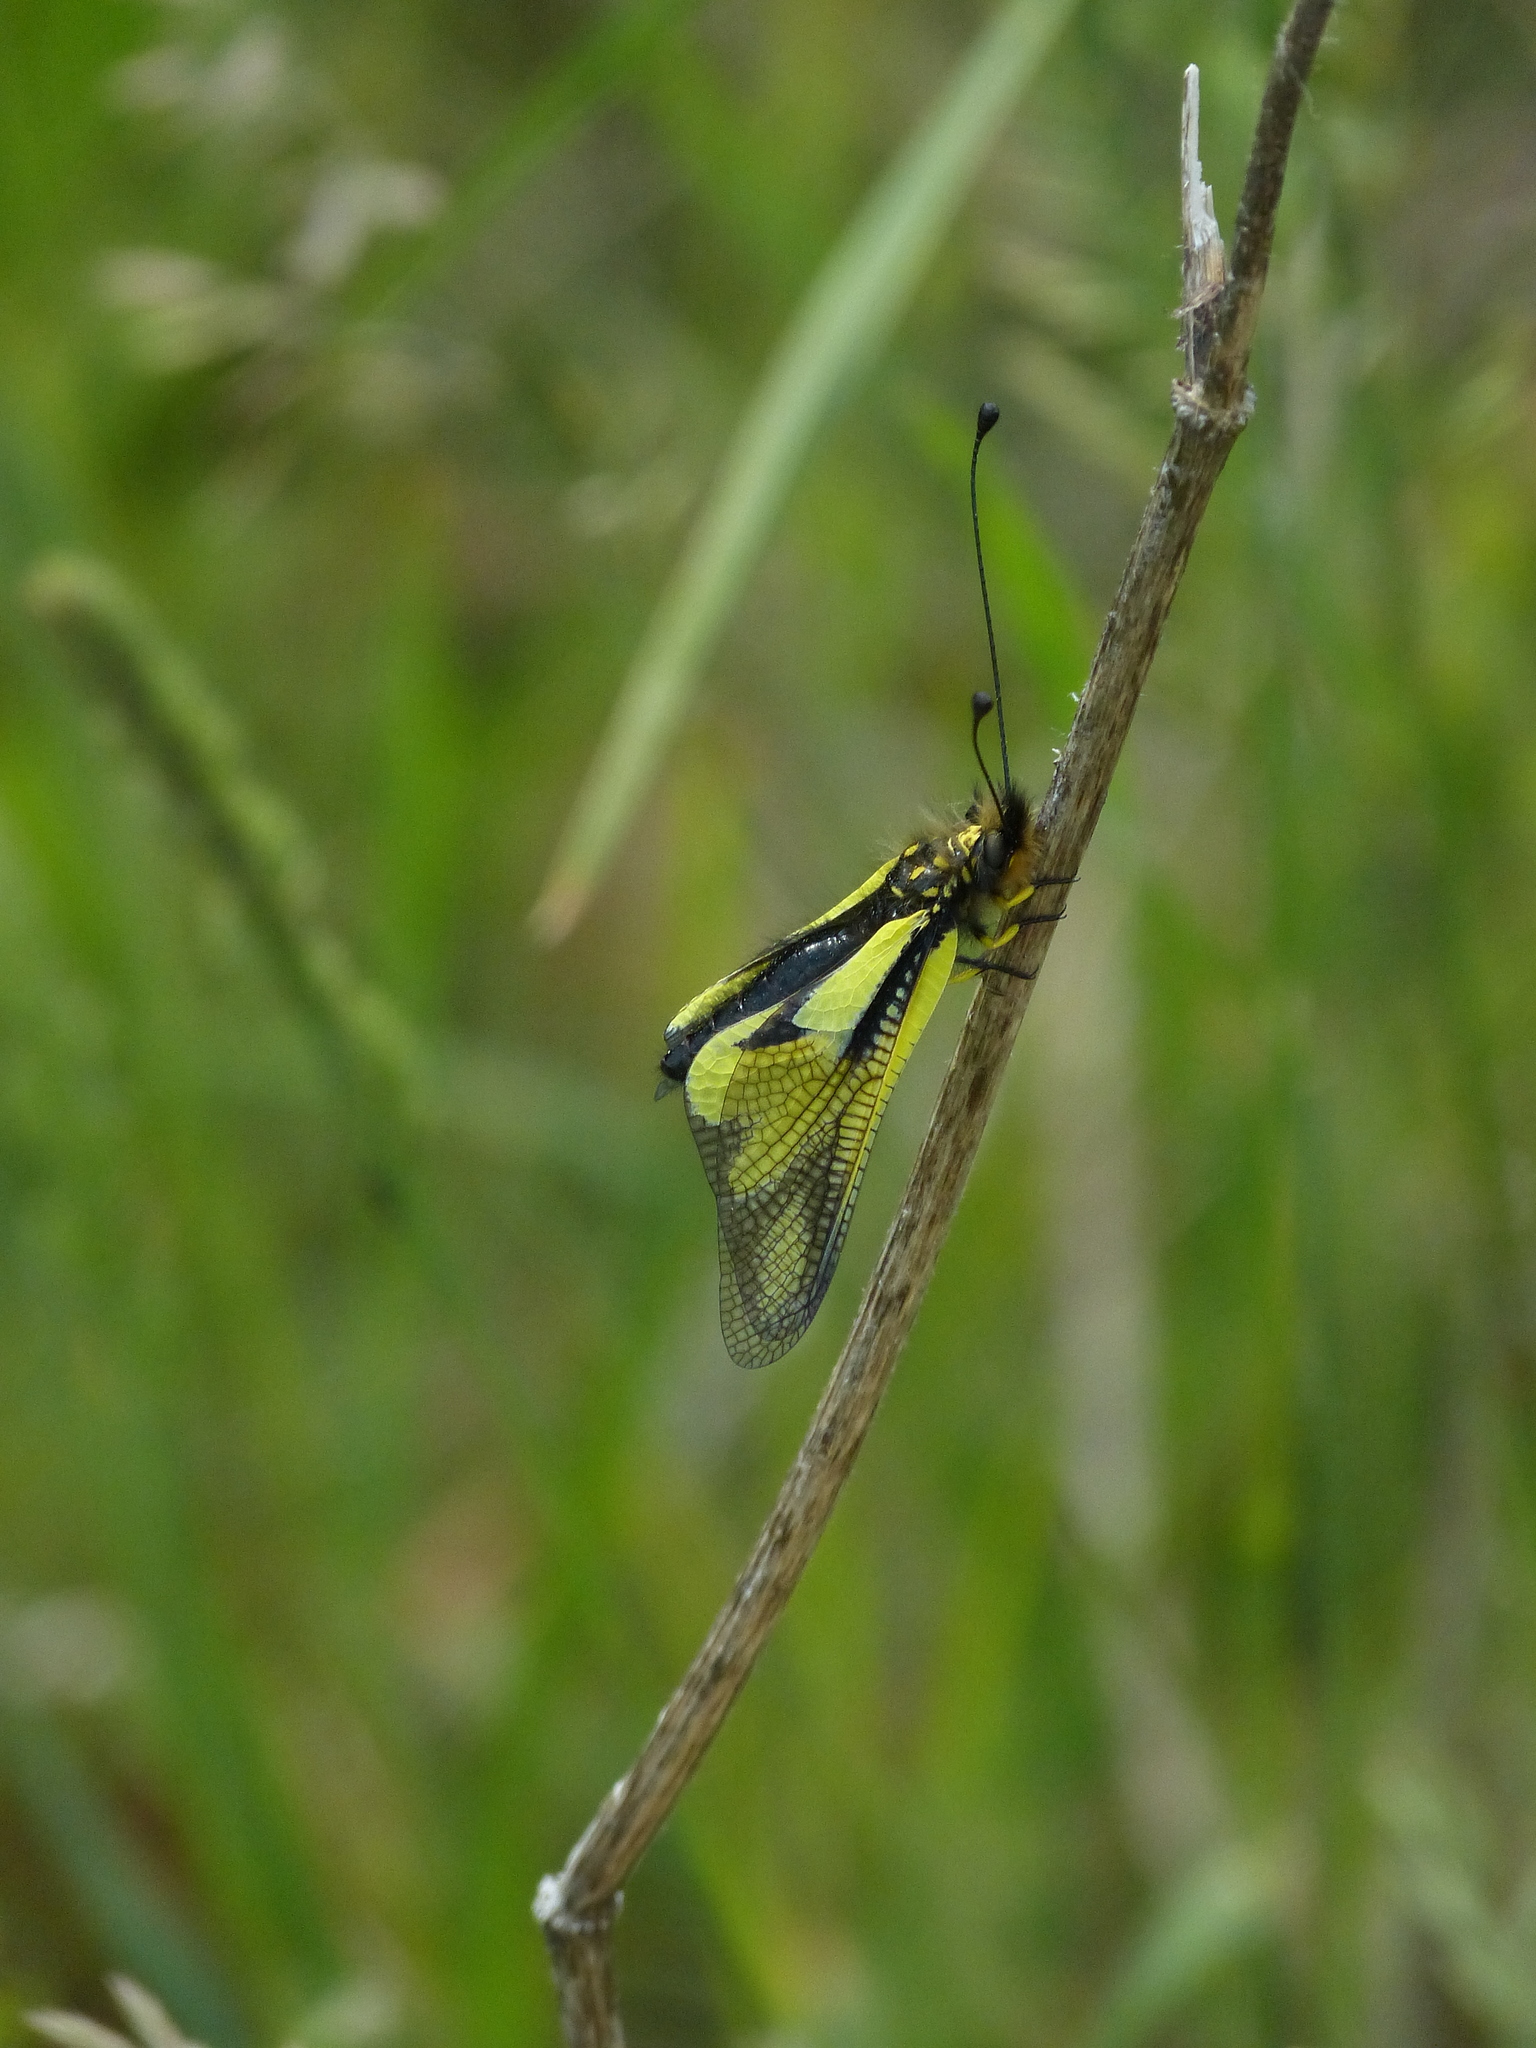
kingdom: Animalia
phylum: Arthropoda
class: Insecta
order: Neuroptera
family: Ascalaphidae
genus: Libelloides
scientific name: Libelloides coccajus
